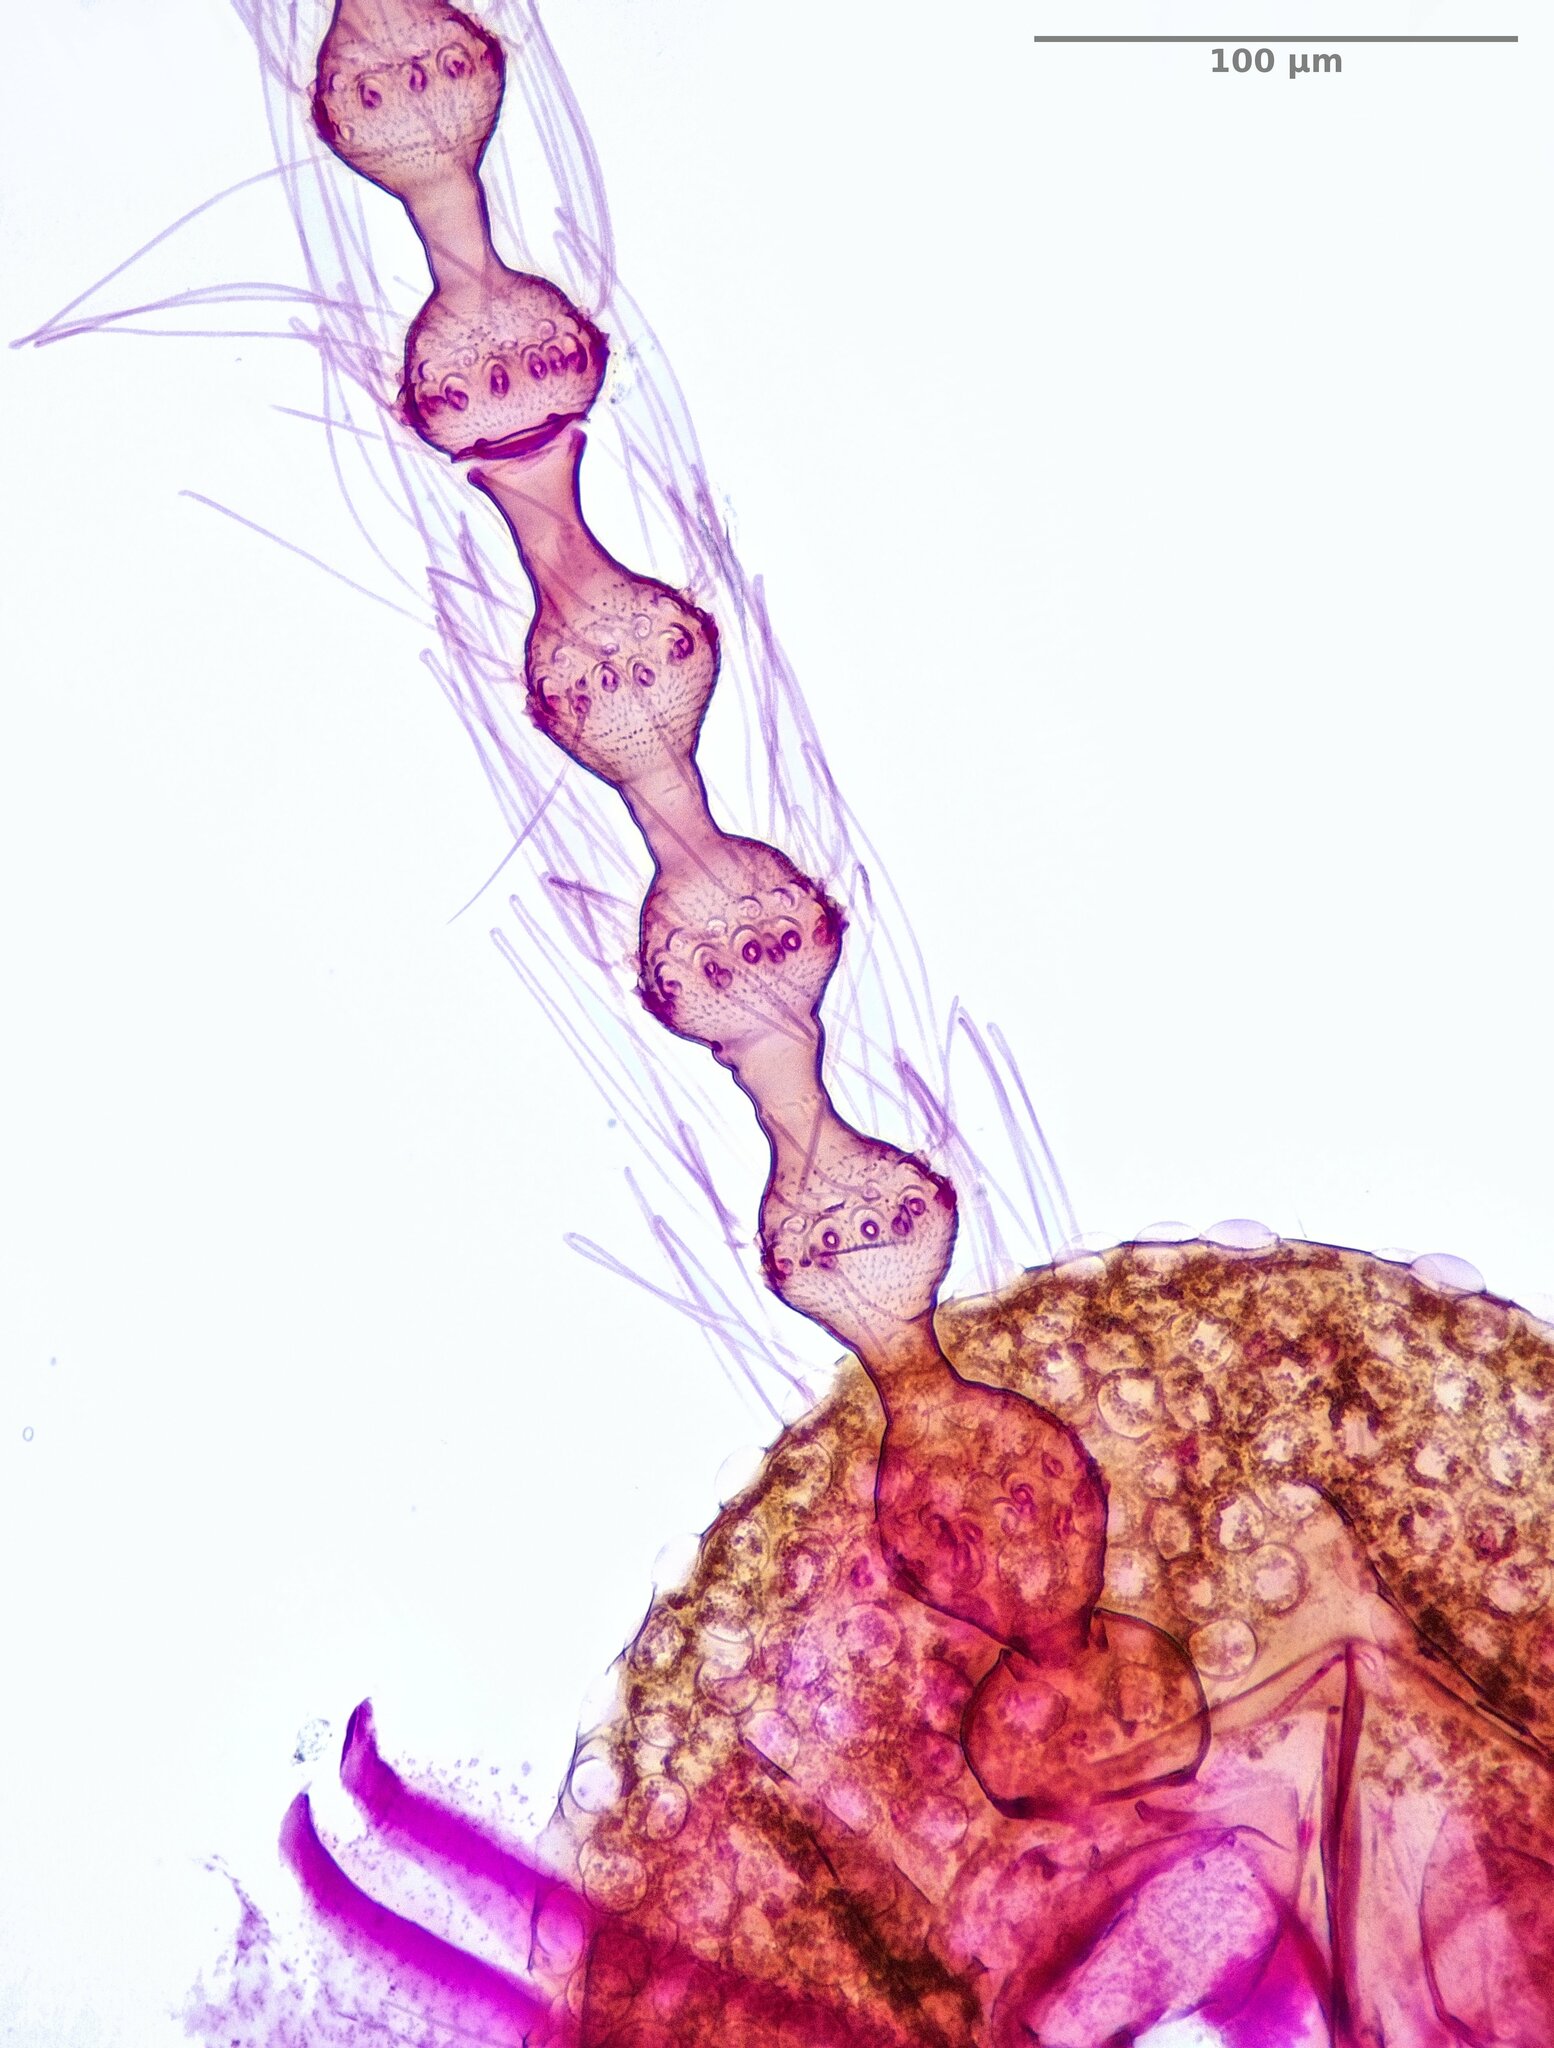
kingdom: Animalia
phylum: Arthropoda
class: Insecta
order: Diptera
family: Cecidomyiidae
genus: Contarinia
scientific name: Contarinia pseudotsugae
